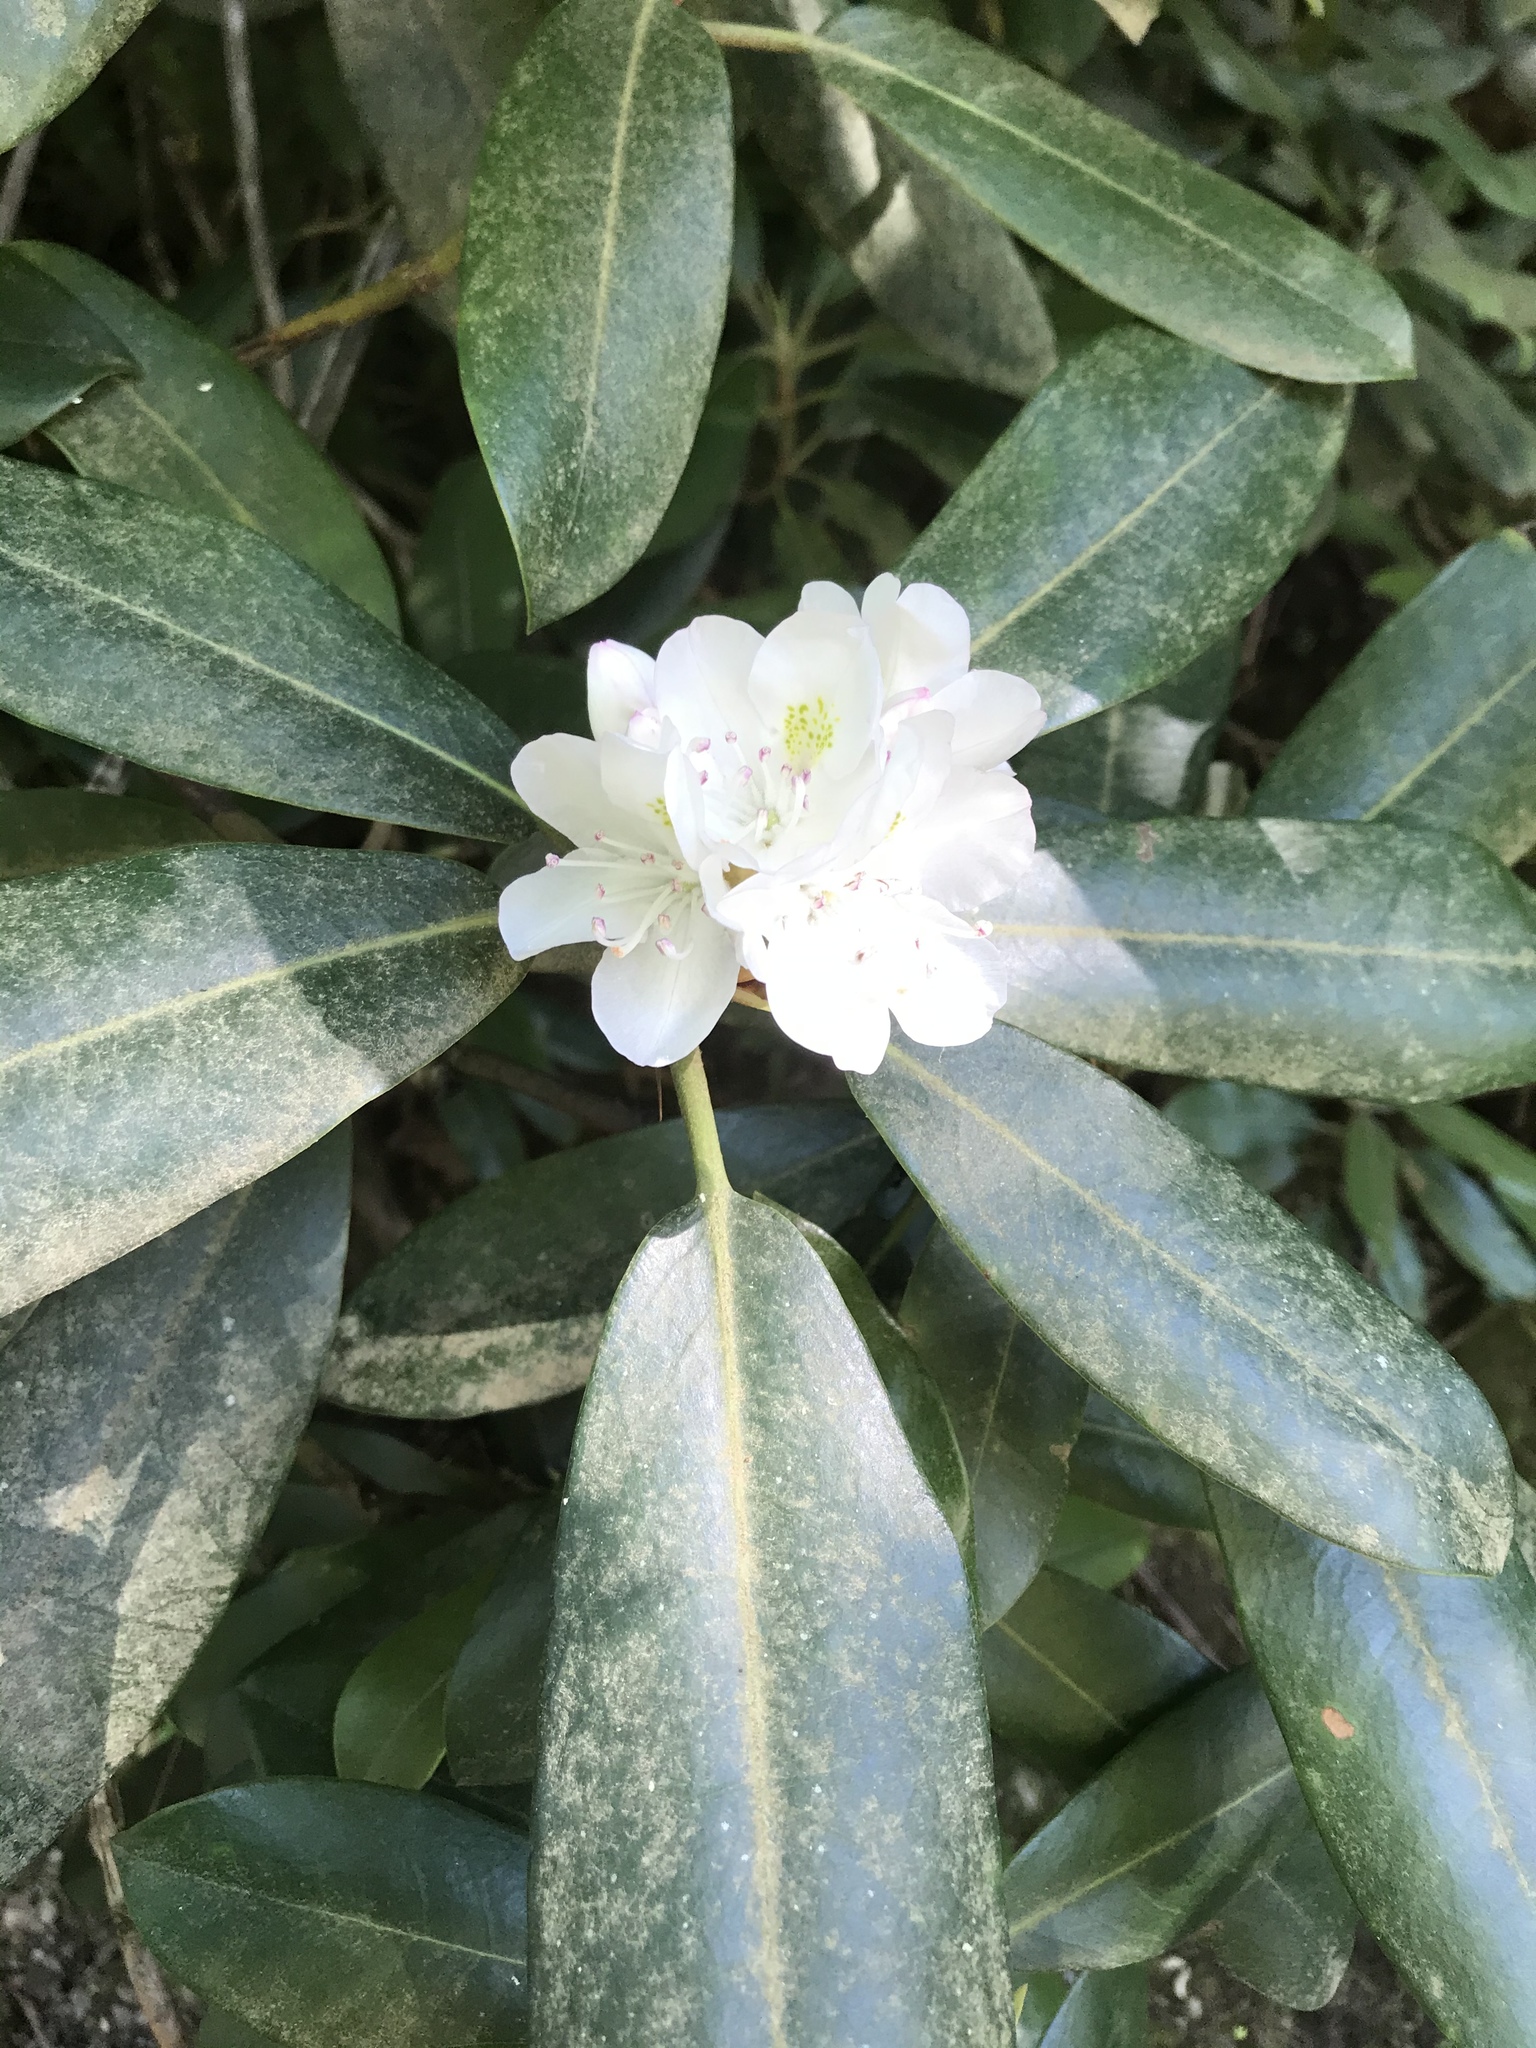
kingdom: Plantae
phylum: Tracheophyta
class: Magnoliopsida
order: Ericales
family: Ericaceae
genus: Rhododendron
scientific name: Rhododendron maximum
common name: Great rhododendron
